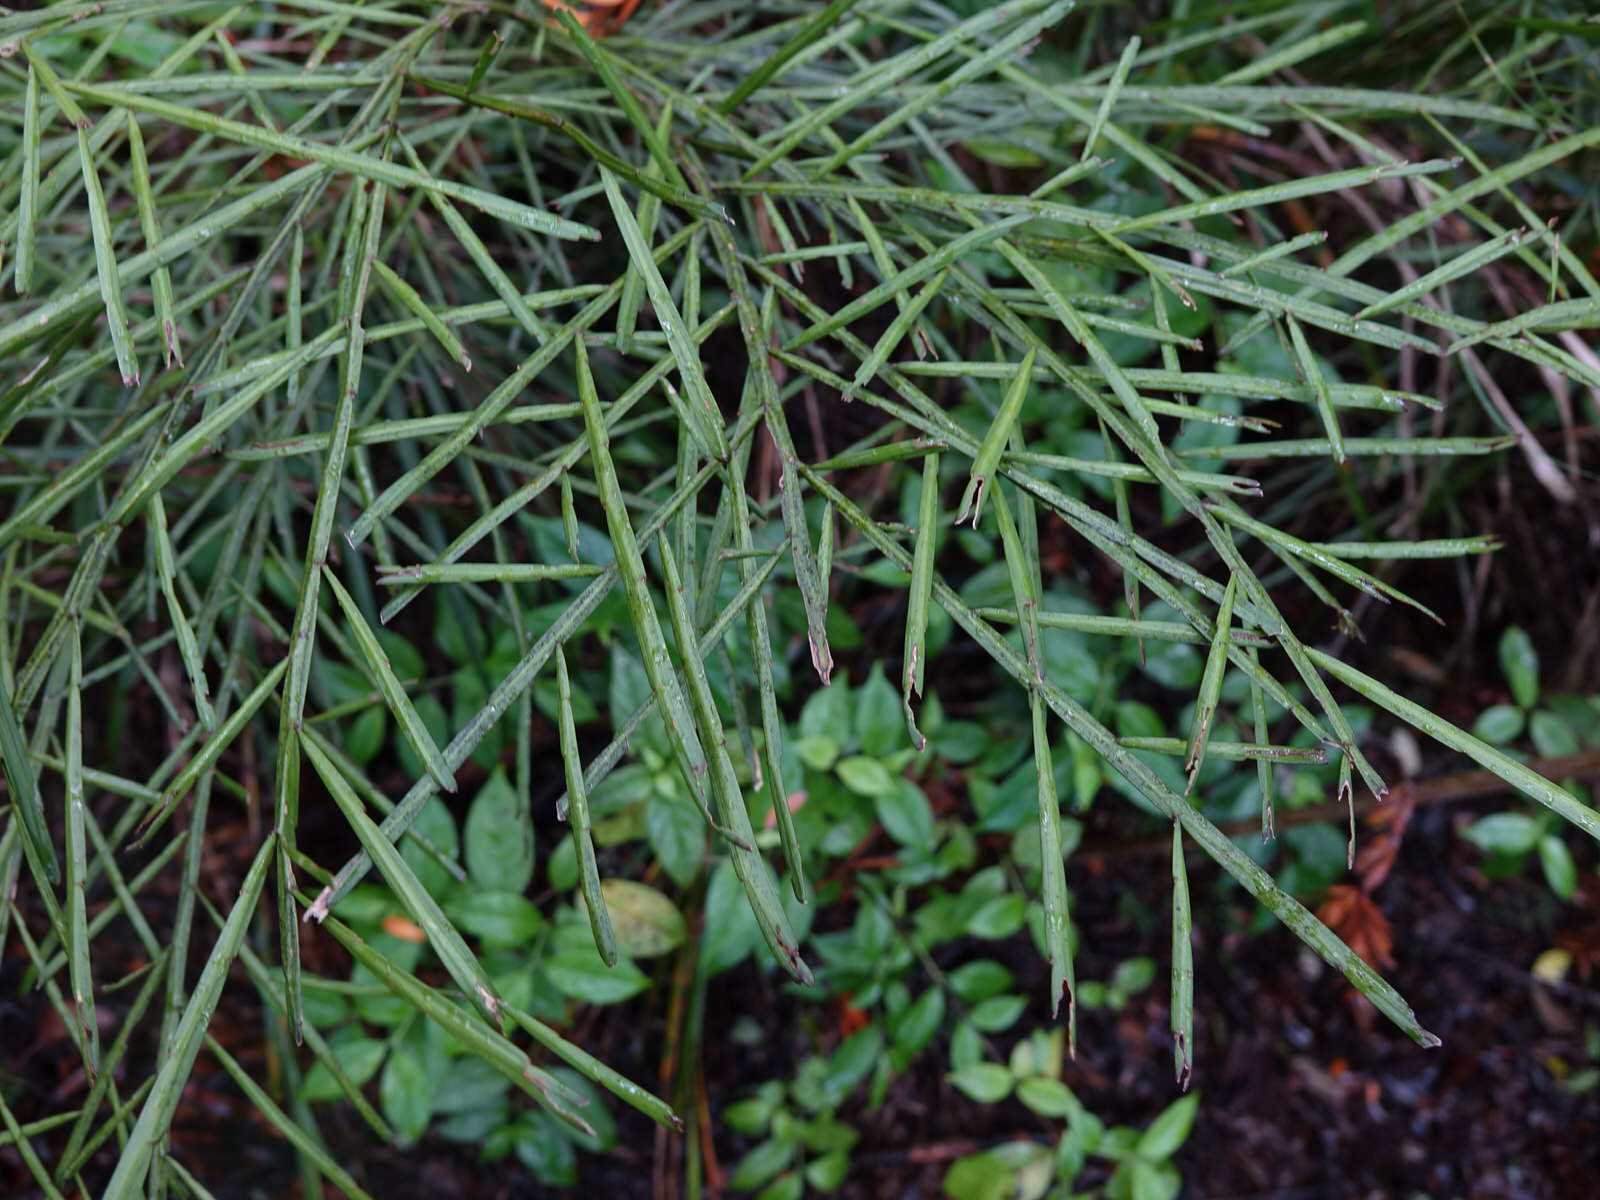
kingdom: Plantae
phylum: Tracheophyta
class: Magnoliopsida
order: Fabales
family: Fabaceae
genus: Carmichaelia
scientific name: Carmichaelia australis
